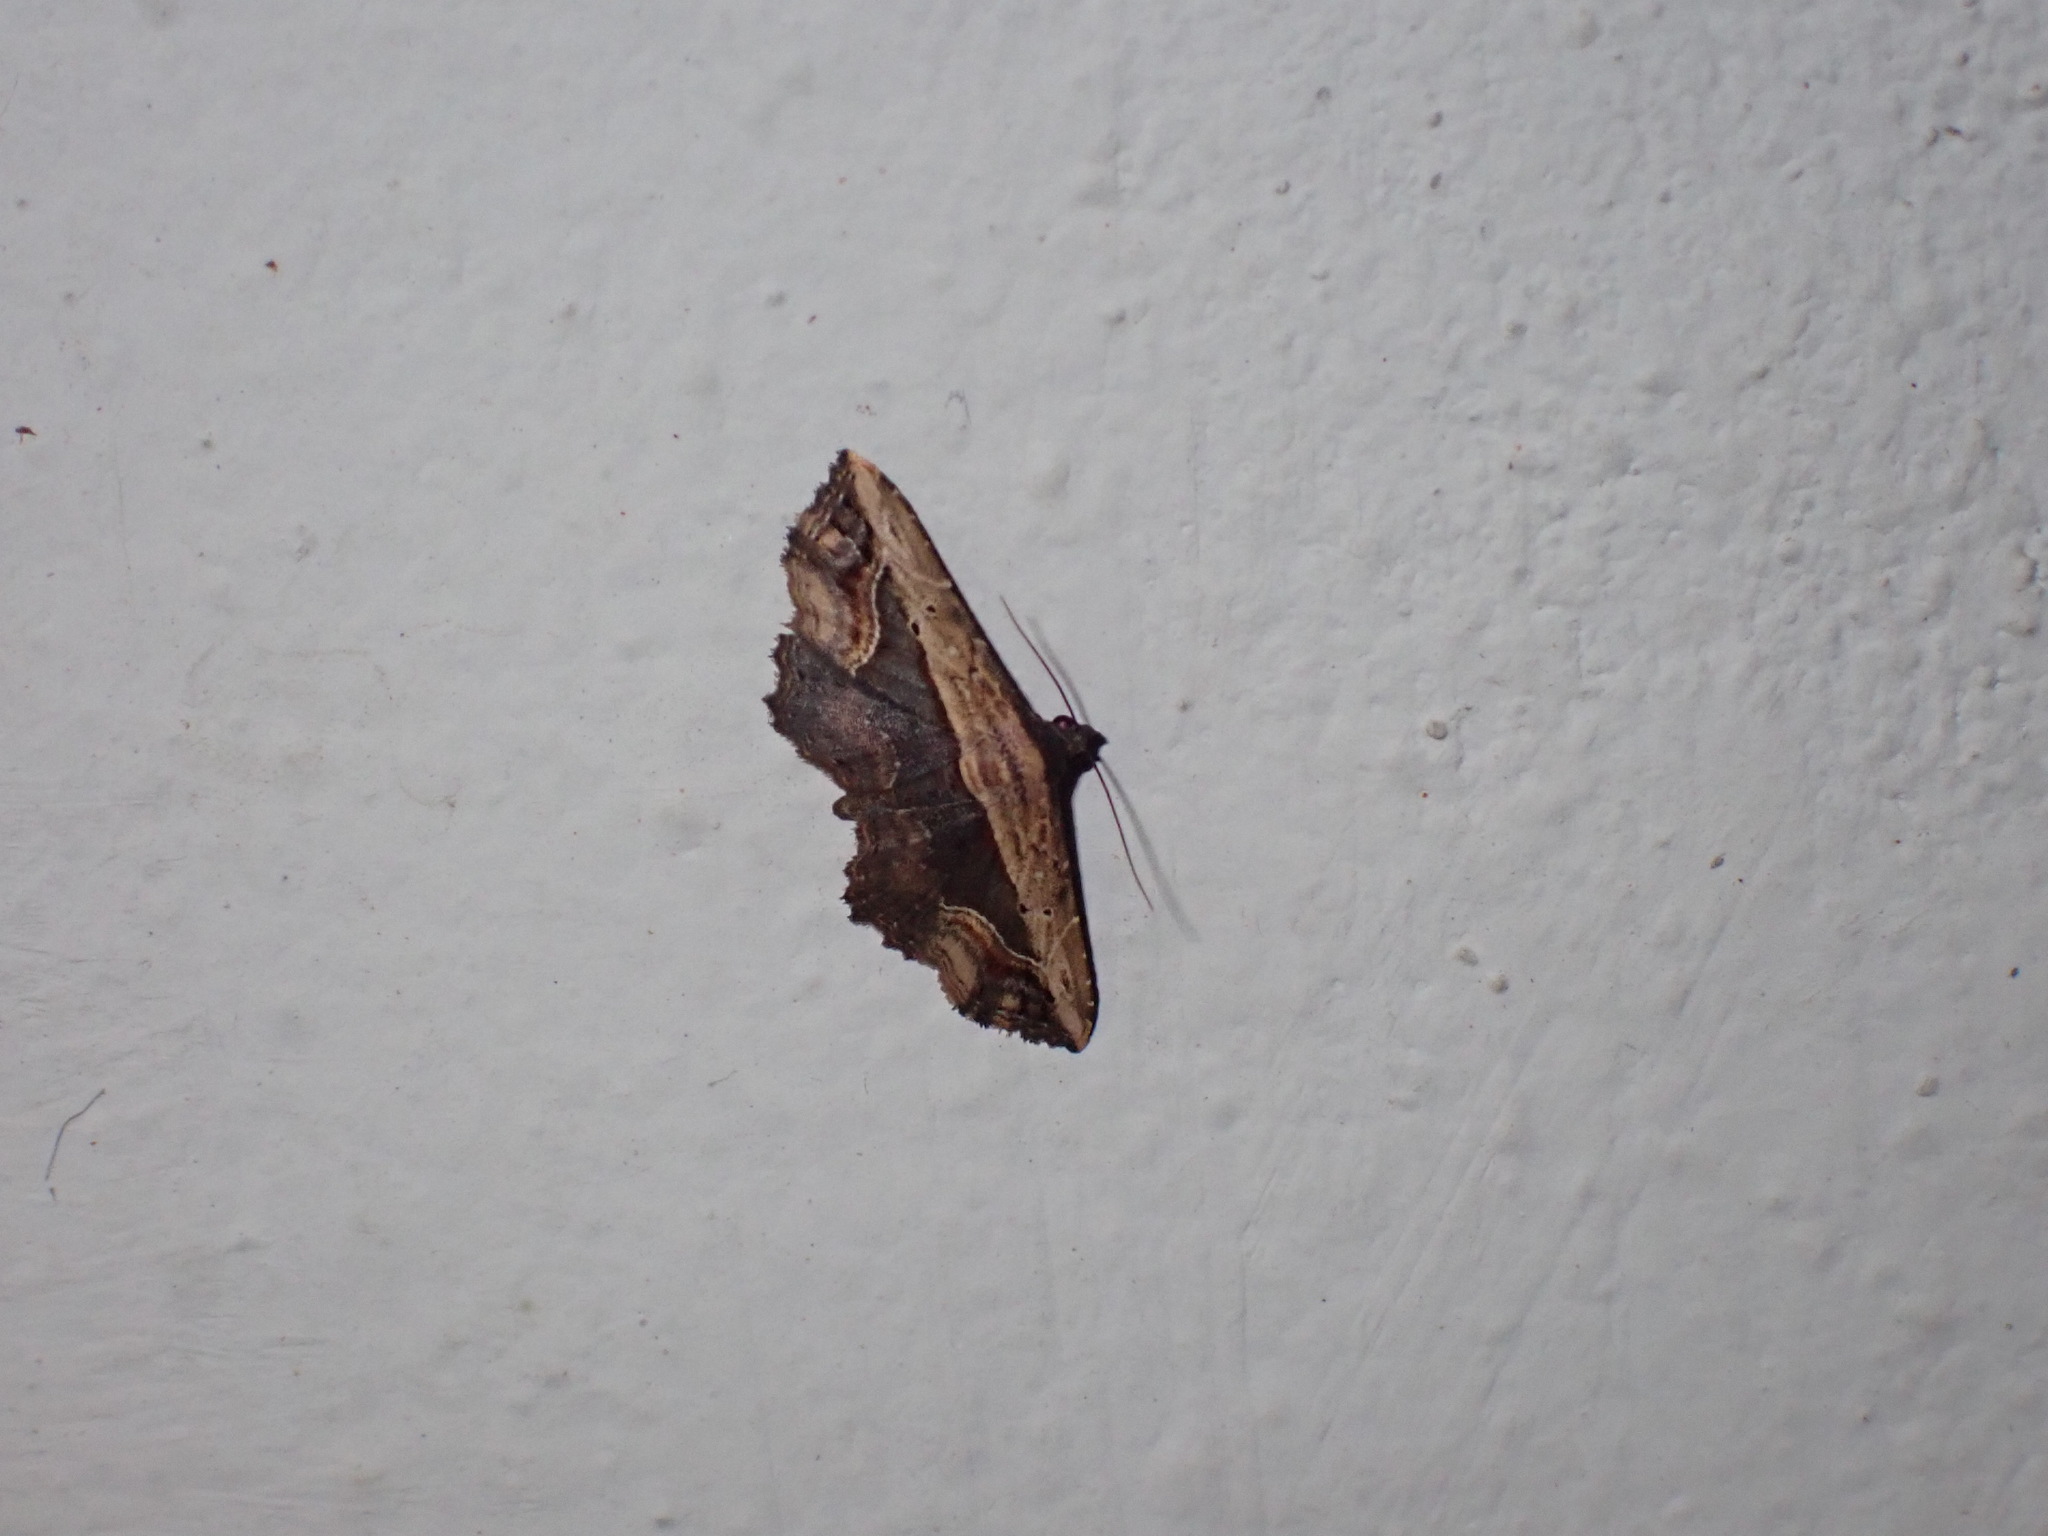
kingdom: Animalia
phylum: Arthropoda
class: Insecta
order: Lepidoptera
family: Noctuidae
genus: Ataboruza
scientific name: Ataboruza stragulata
